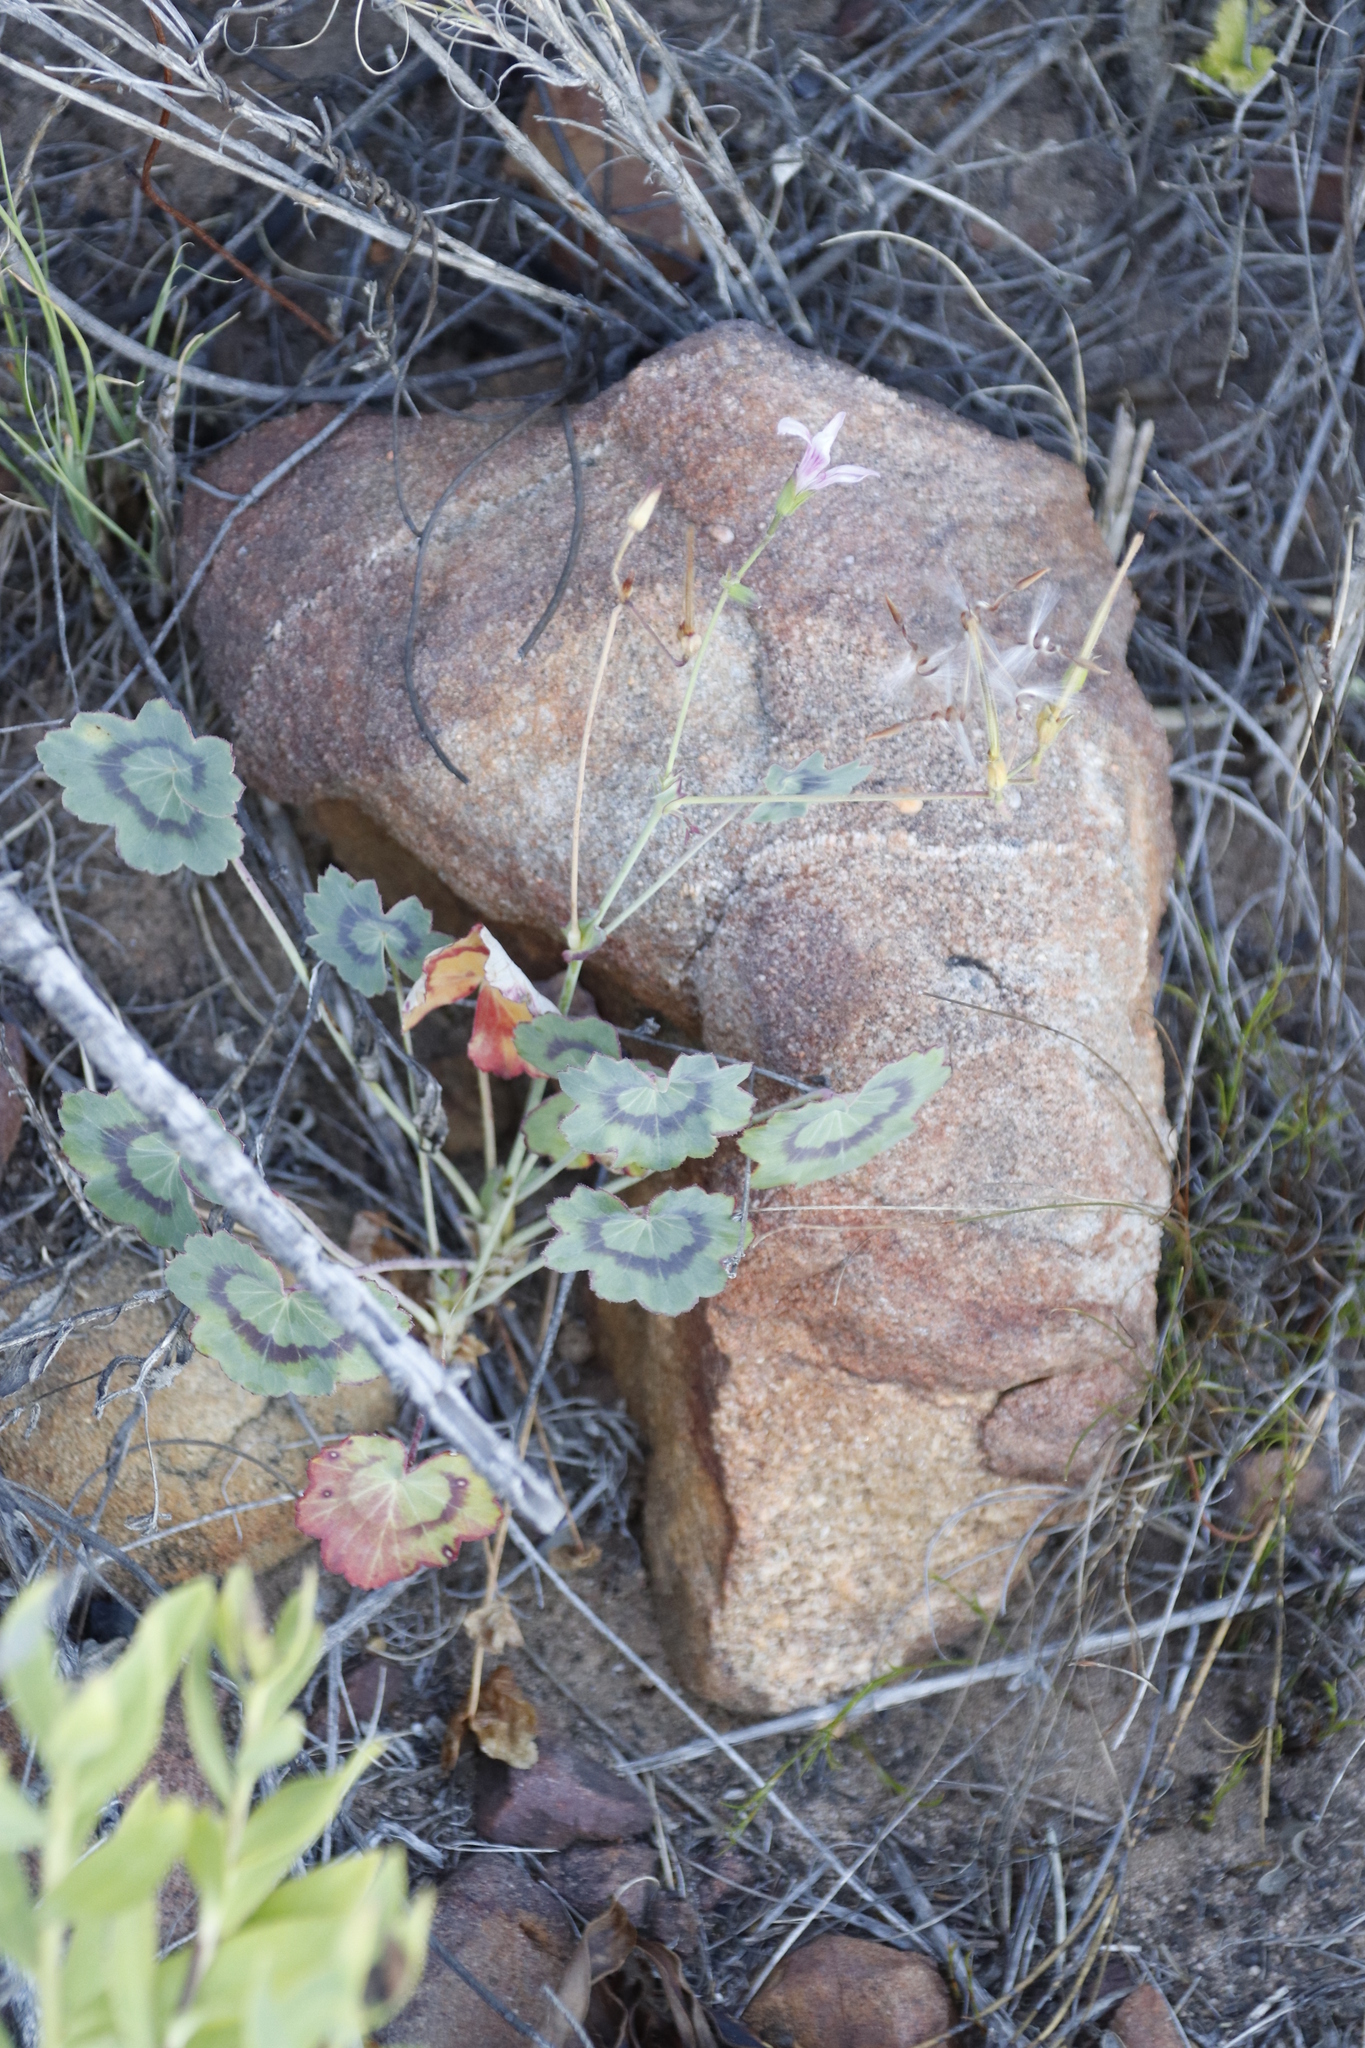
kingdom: Plantae
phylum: Tracheophyta
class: Magnoliopsida
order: Geraniales
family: Geraniaceae
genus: Pelargonium
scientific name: Pelargonium tabulare
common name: Table mountain pelargonium
